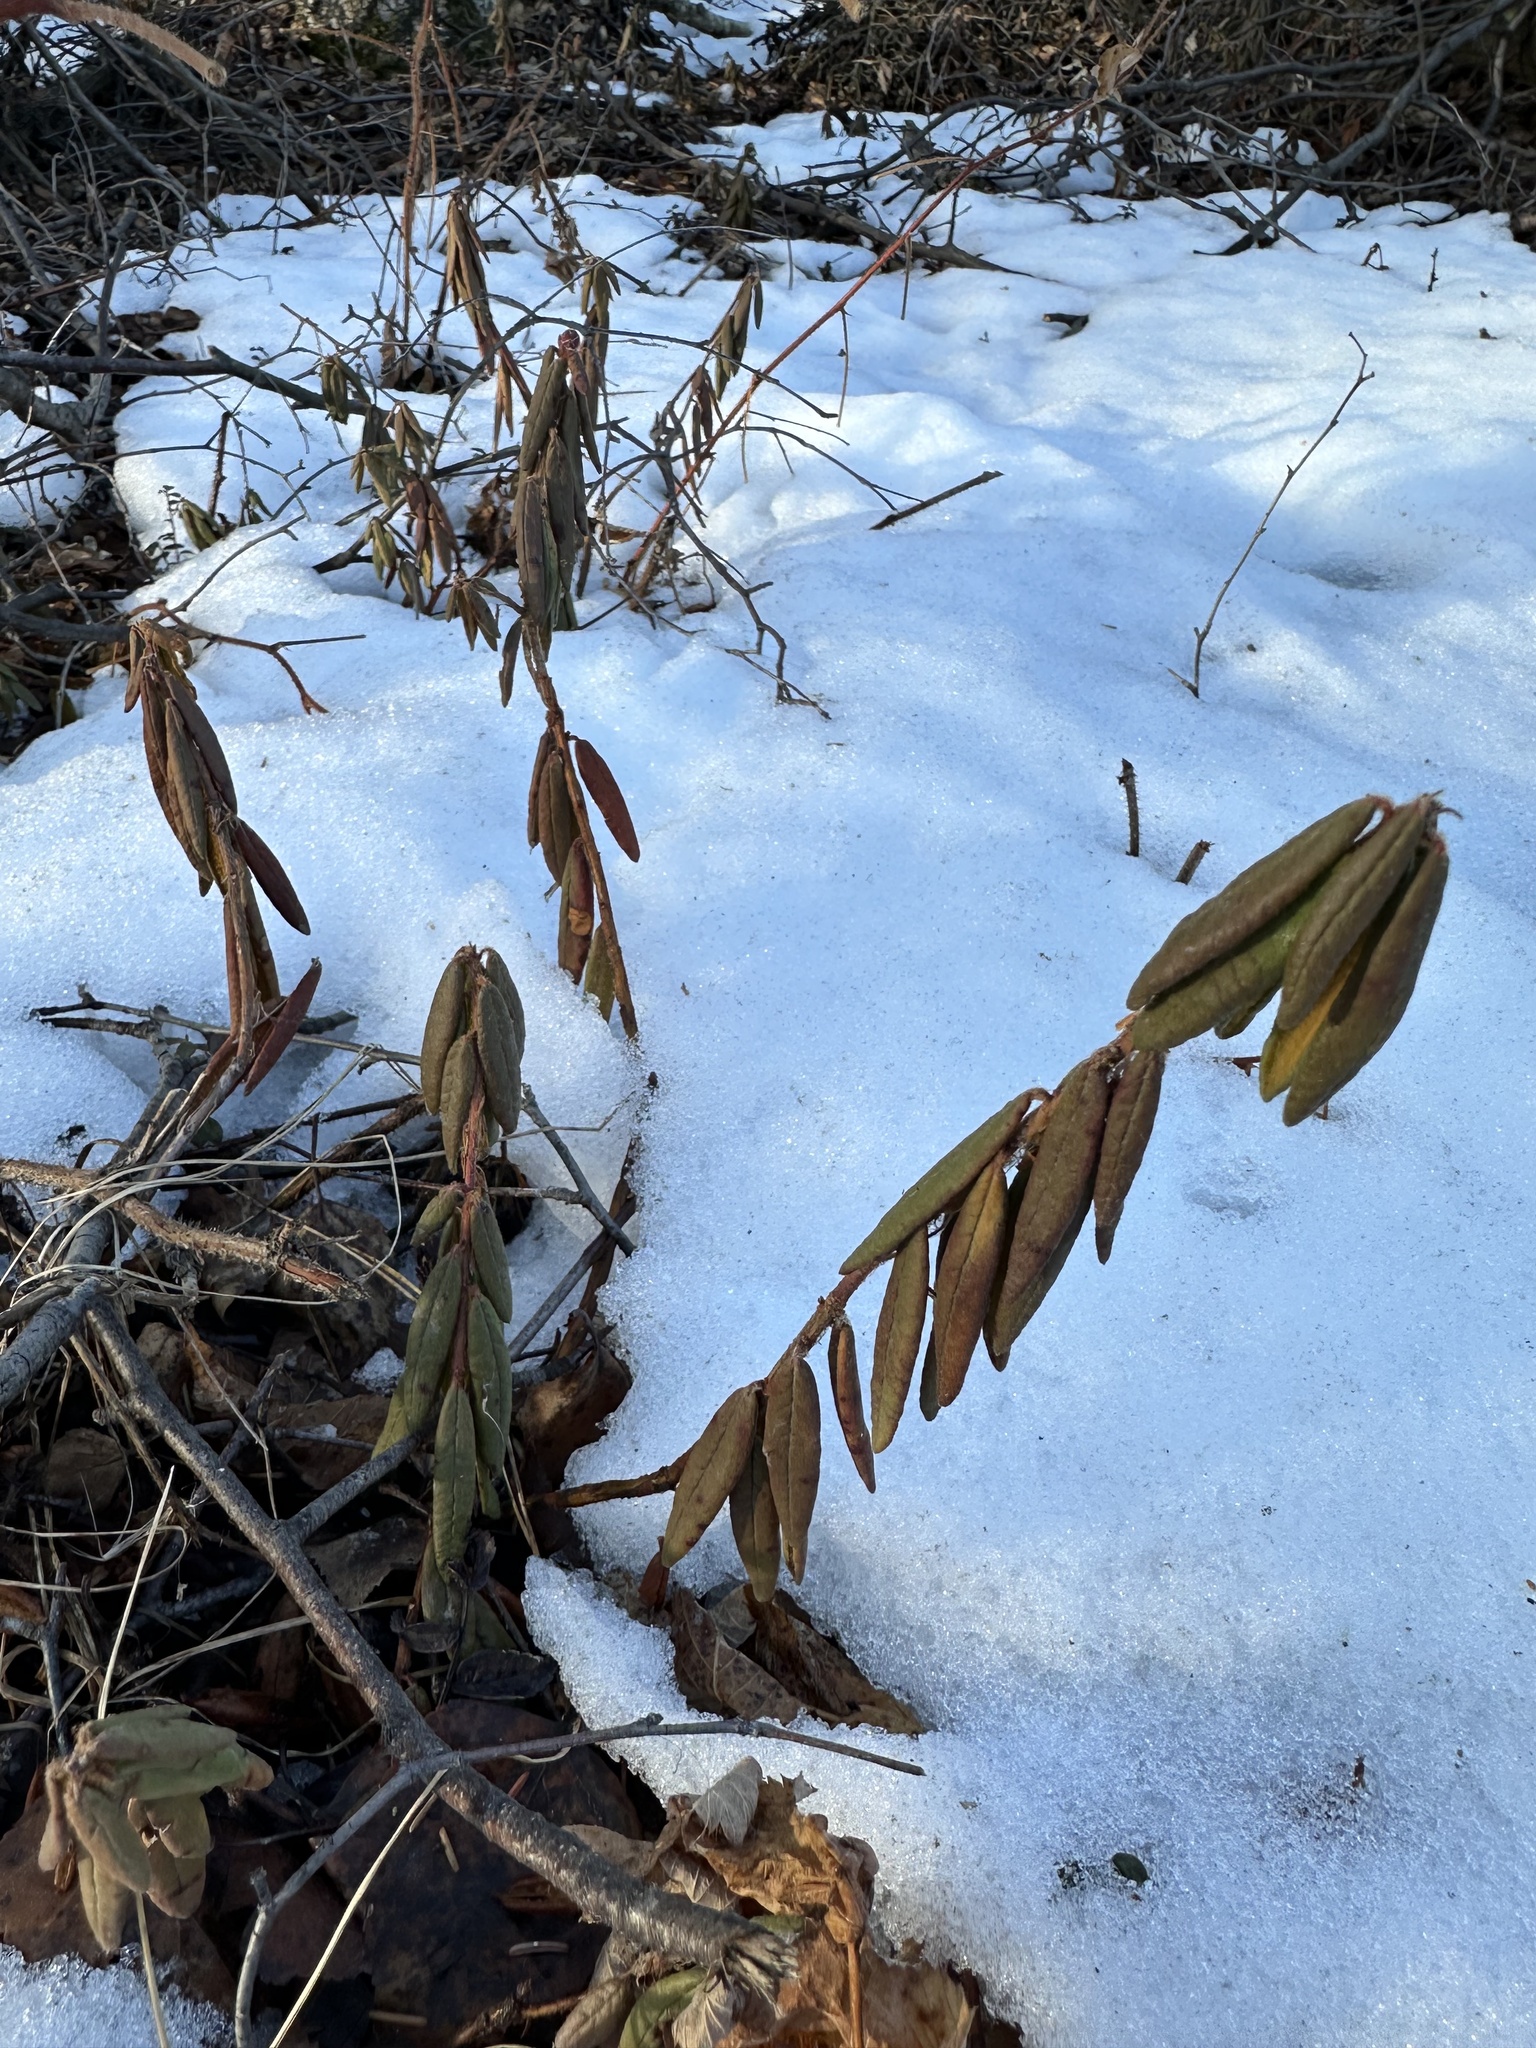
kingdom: Plantae
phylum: Tracheophyta
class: Magnoliopsida
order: Ericales
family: Ericaceae
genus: Rhododendron
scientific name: Rhododendron groenlandicum
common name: Bog labrador tea
